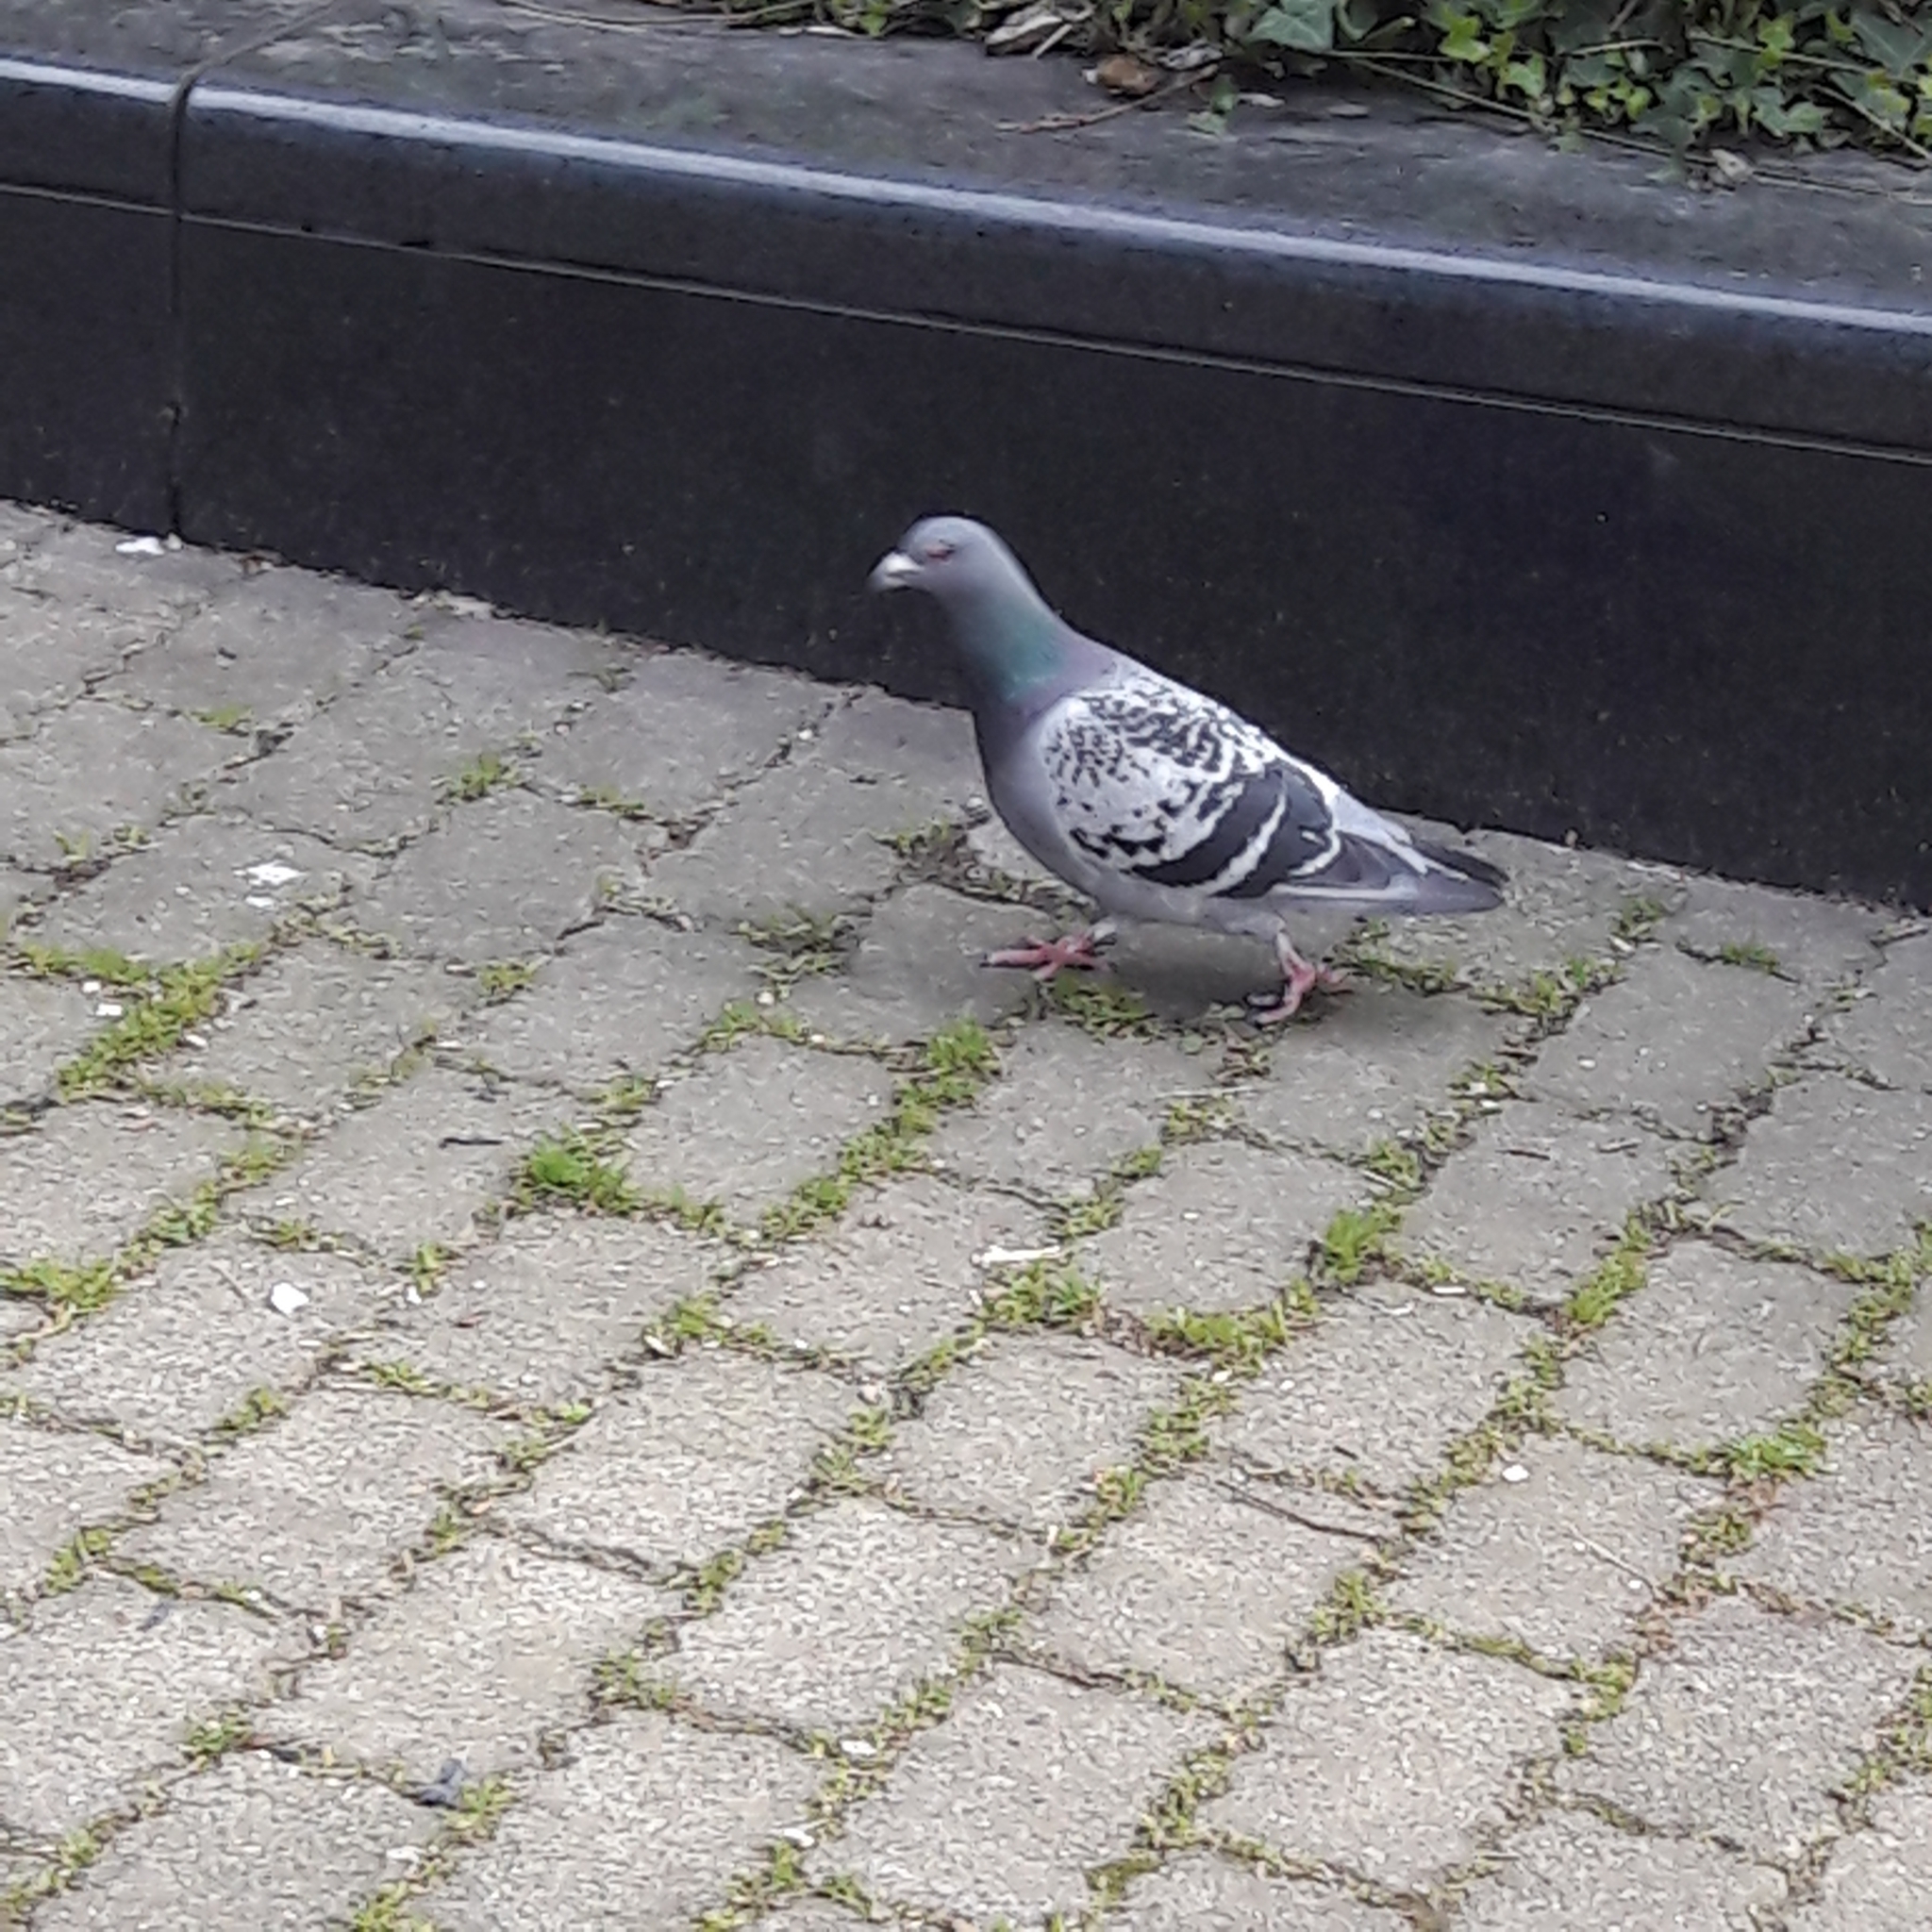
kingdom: Animalia
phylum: Chordata
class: Aves
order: Columbiformes
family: Columbidae
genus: Columba
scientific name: Columba livia
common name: Rock pigeon
